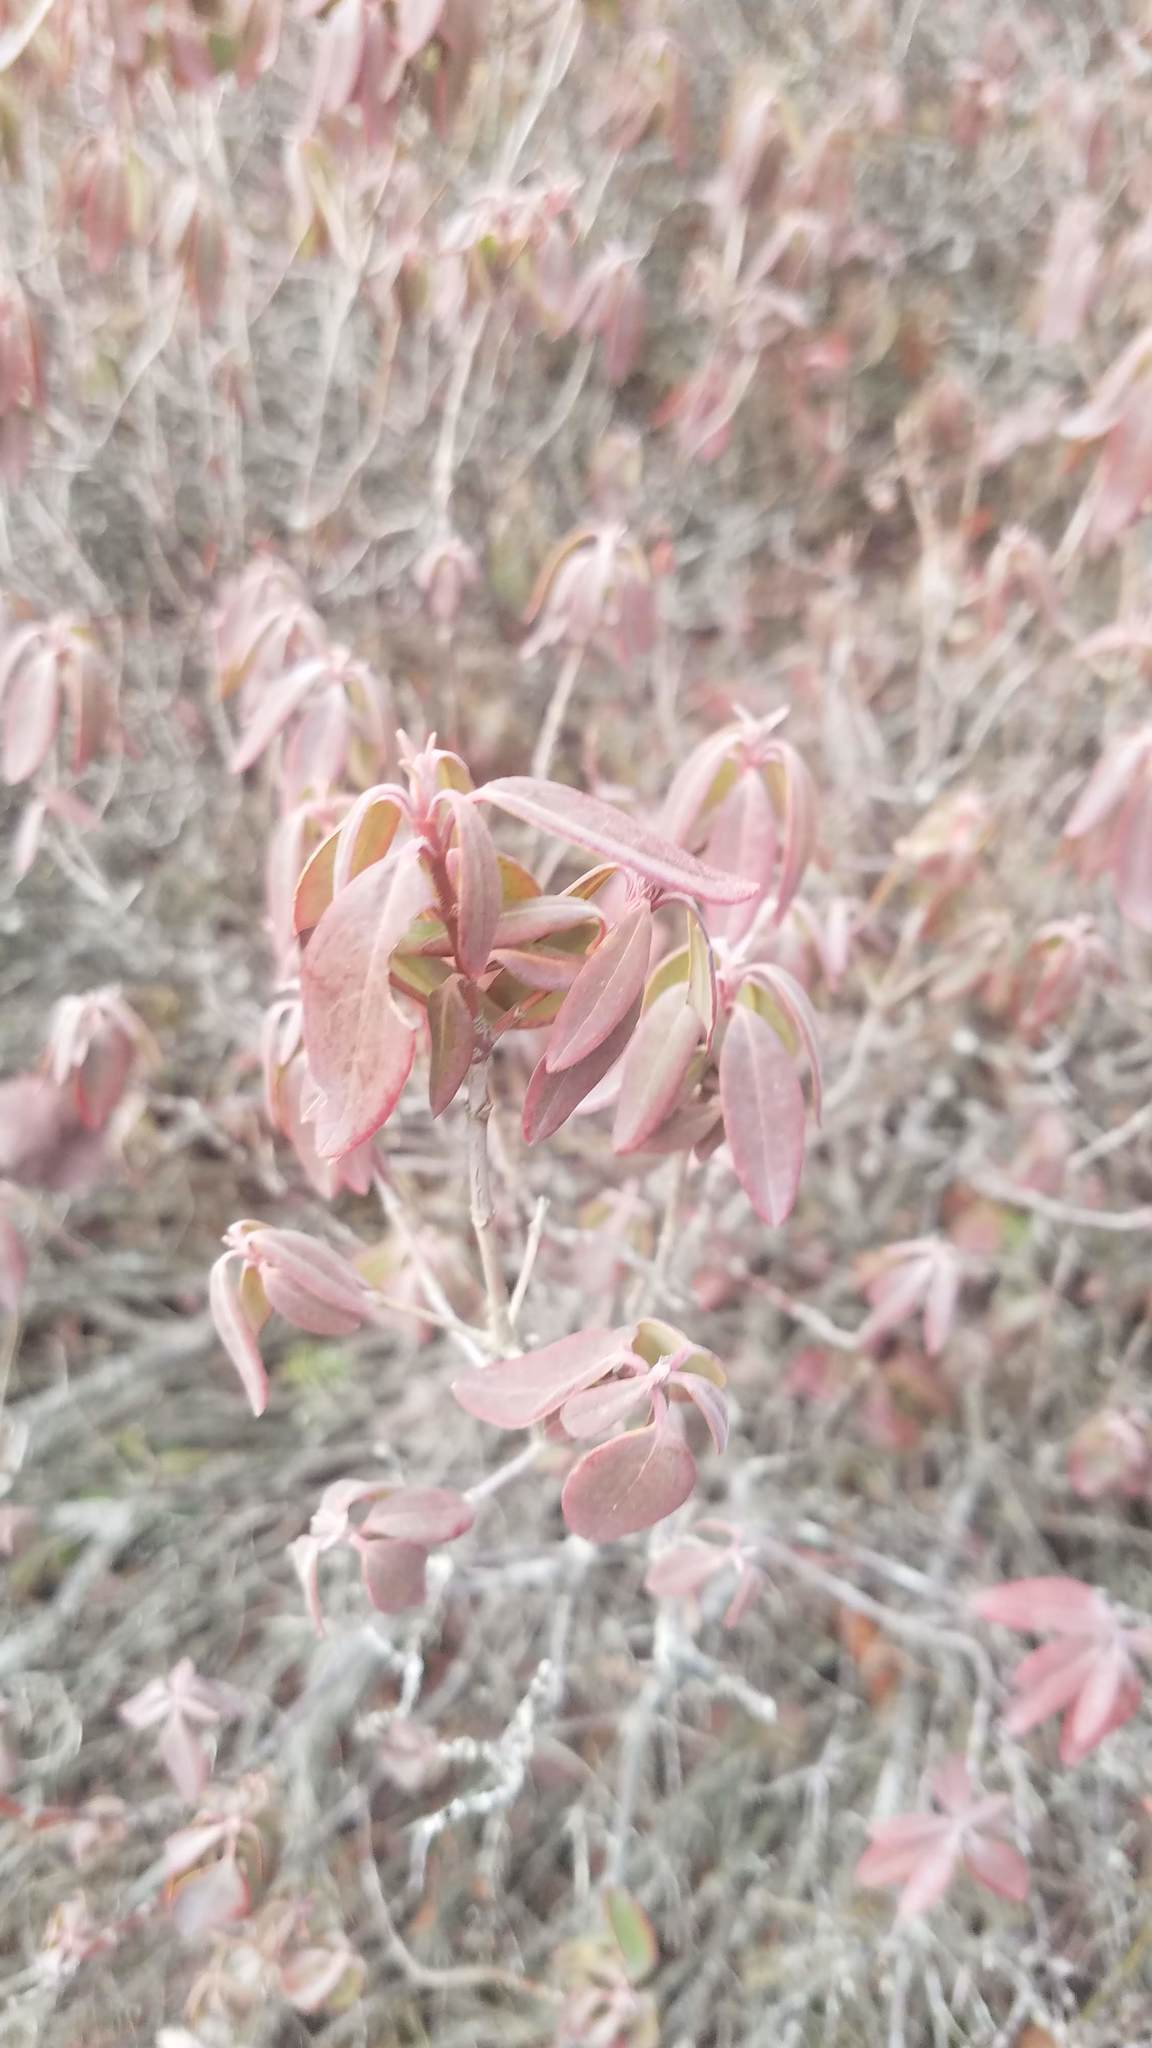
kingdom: Plantae
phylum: Tracheophyta
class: Magnoliopsida
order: Ericales
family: Ericaceae
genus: Kalmia
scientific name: Kalmia angustifolia
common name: Sheep-laurel
